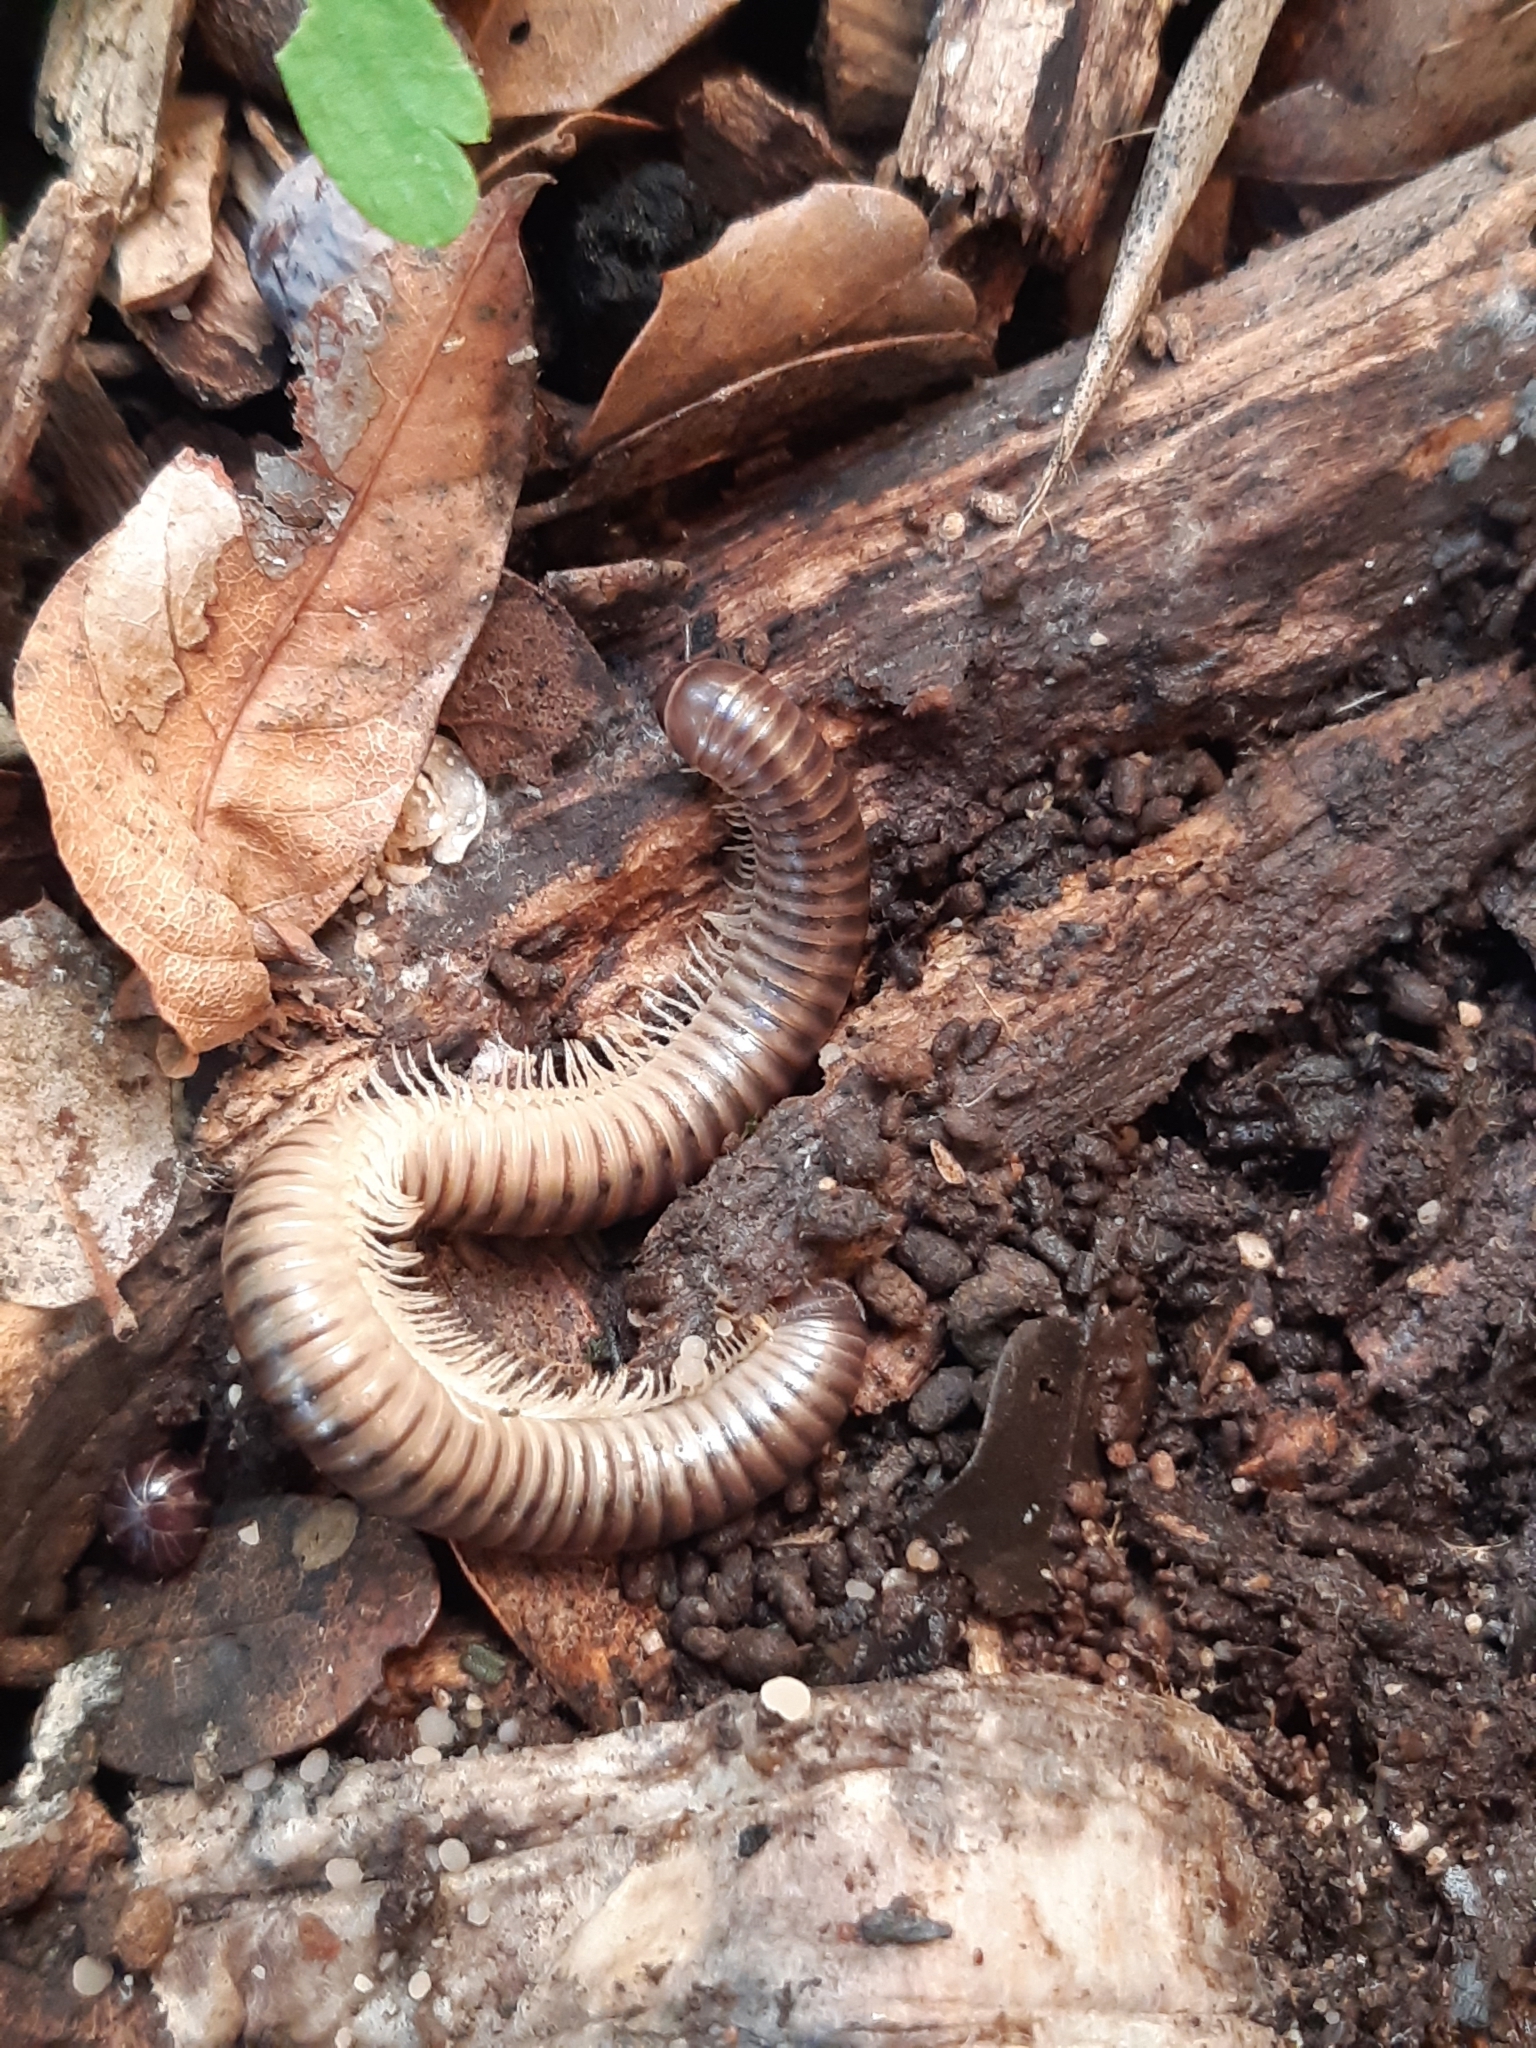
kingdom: Animalia
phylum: Arthropoda
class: Diplopoda
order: Julida
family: Julidae
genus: Pachyiulus
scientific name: Pachyiulus asiaeminoris
